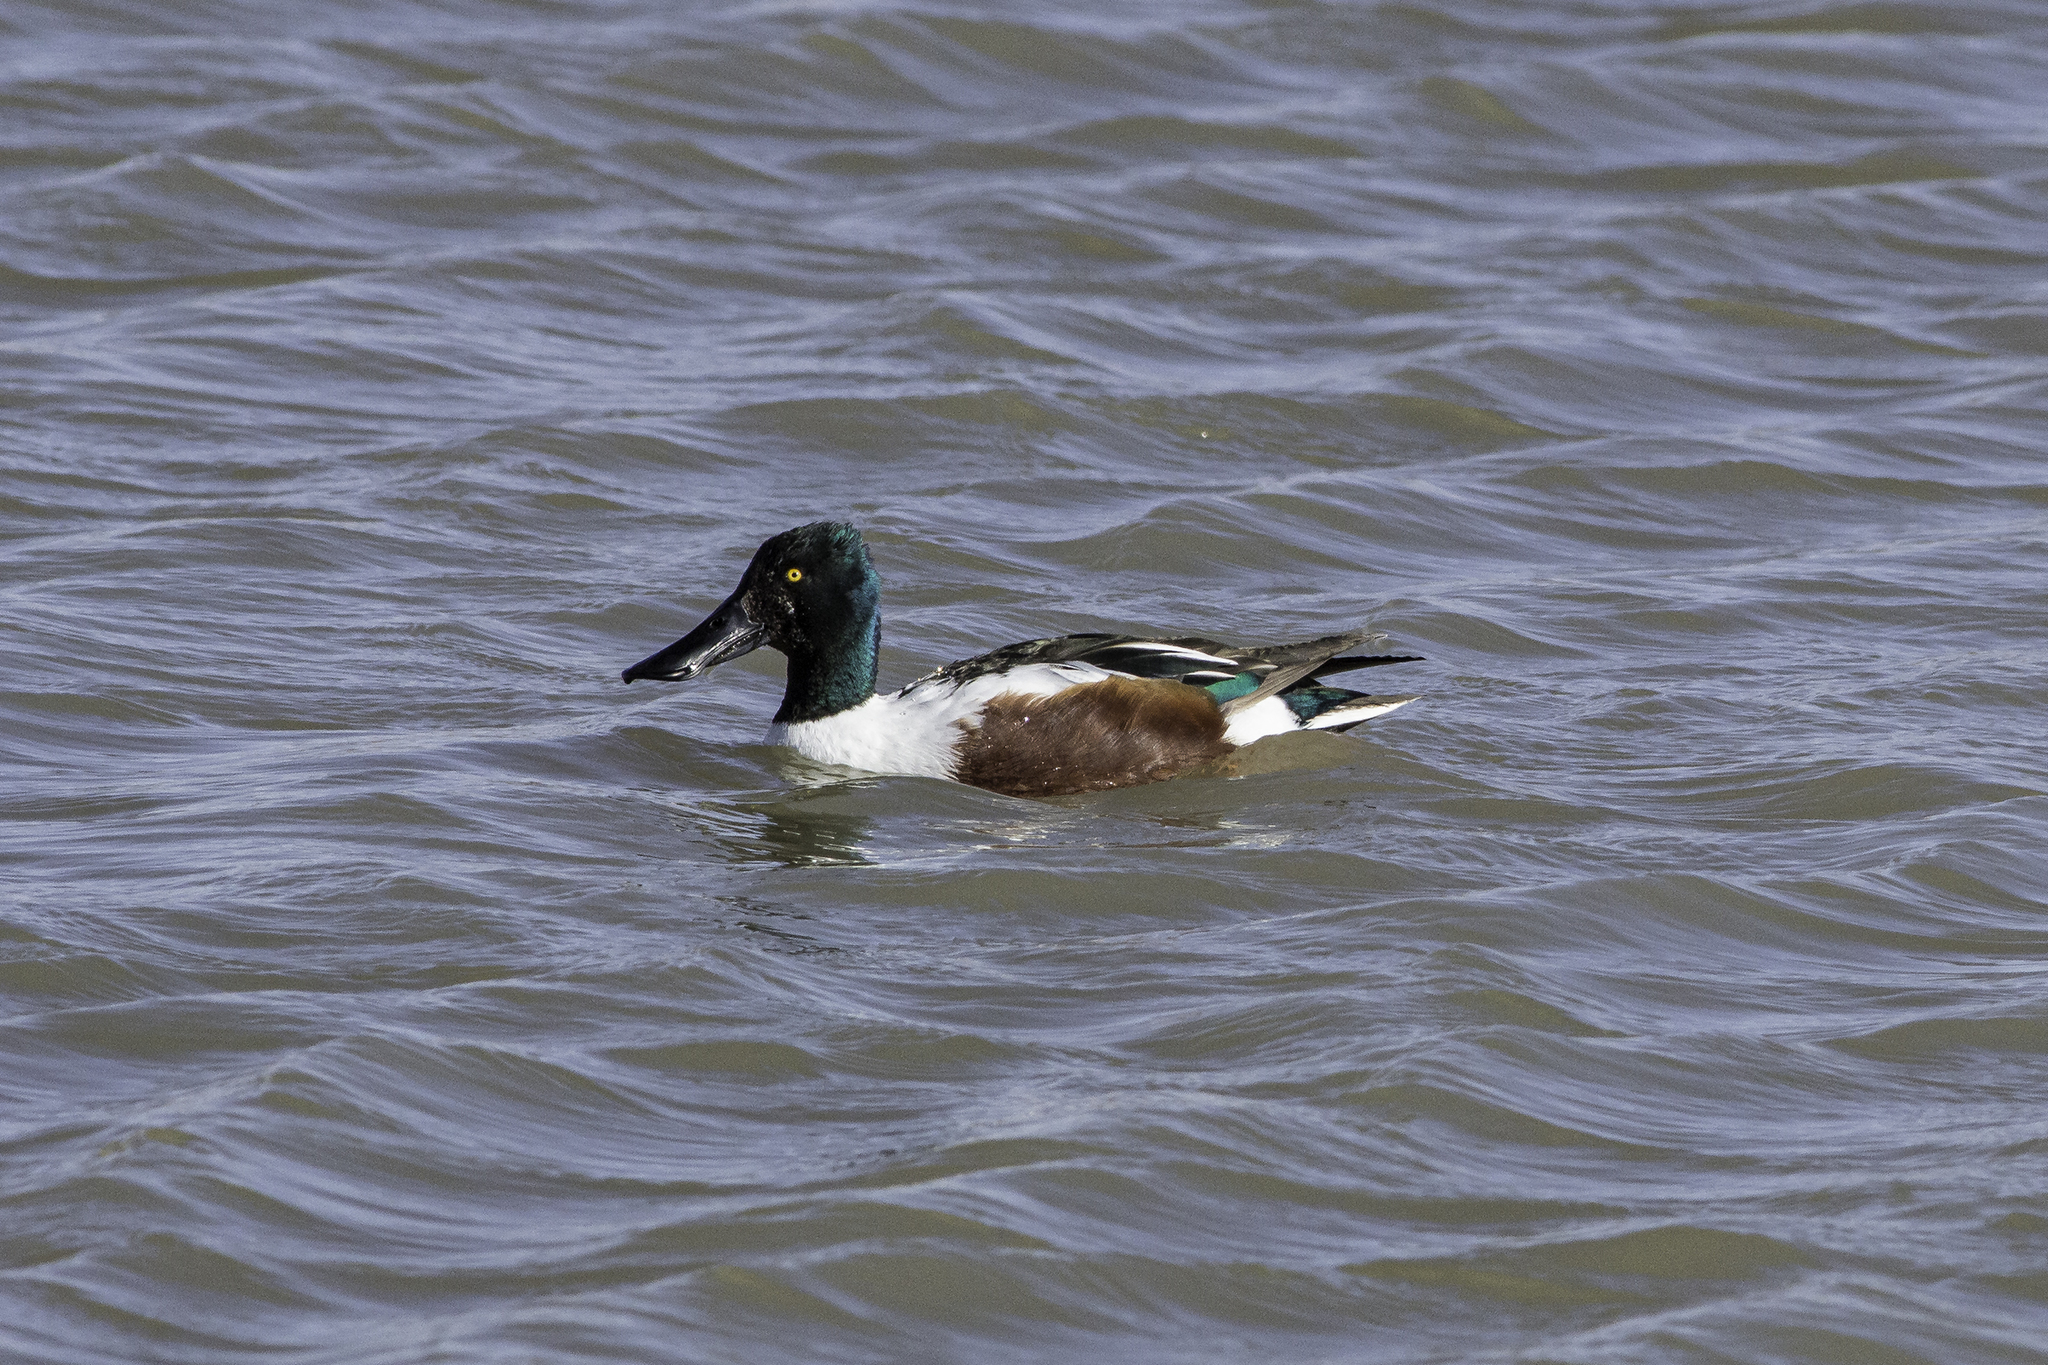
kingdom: Animalia
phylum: Chordata
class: Aves
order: Anseriformes
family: Anatidae
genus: Spatula
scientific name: Spatula clypeata
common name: Northern shoveler
